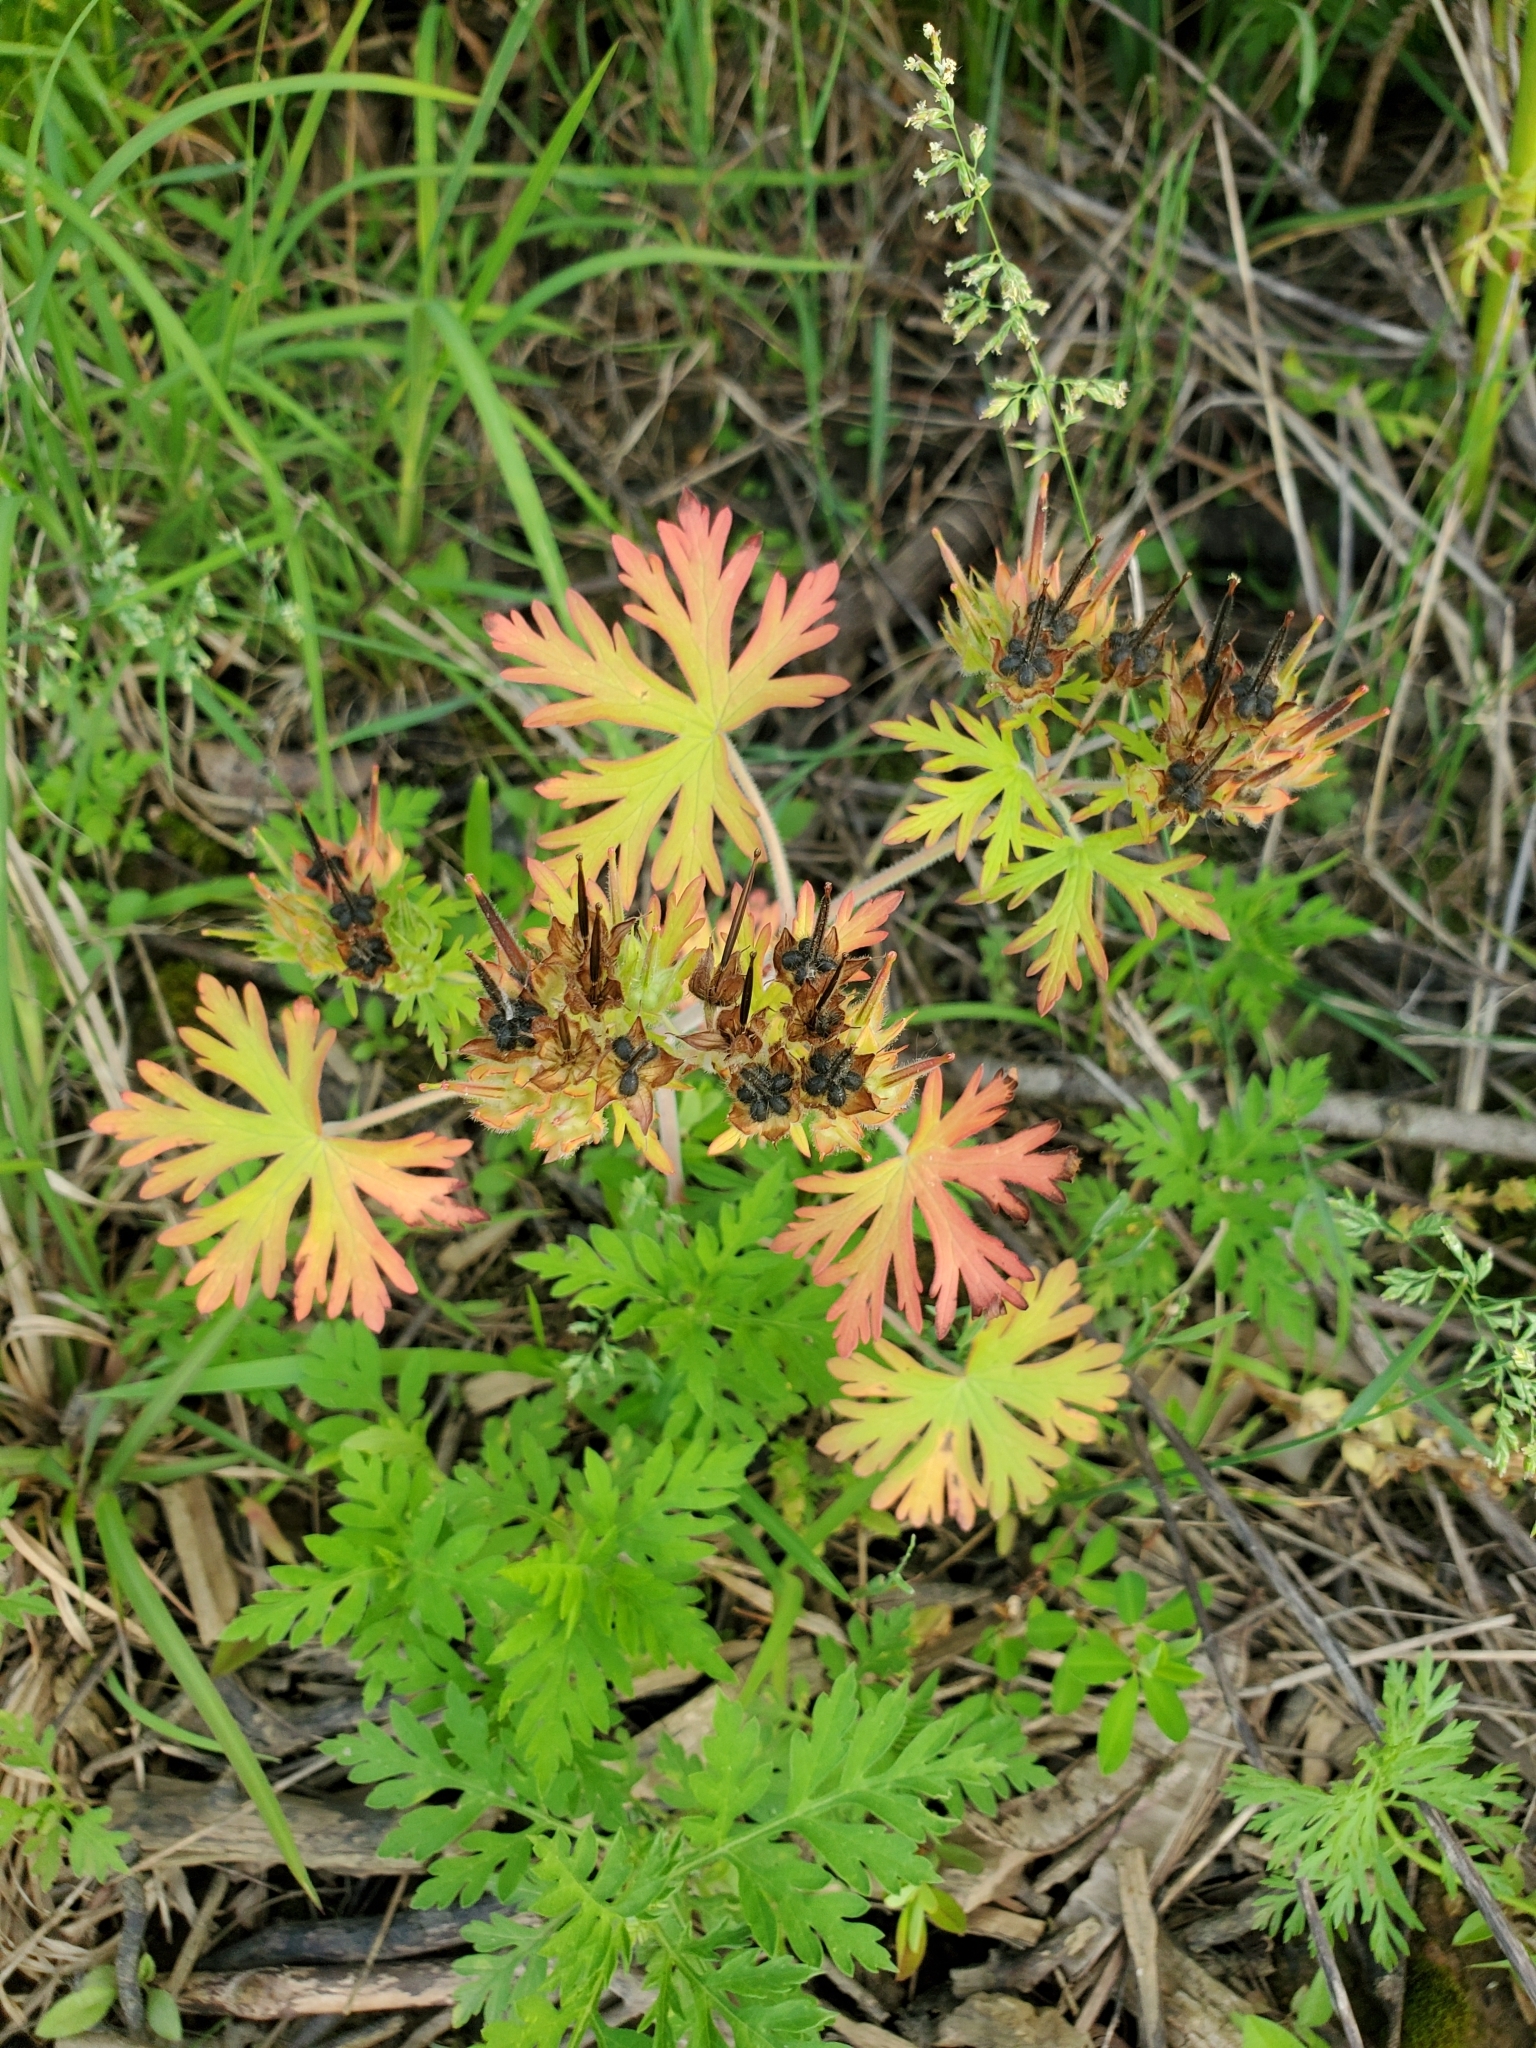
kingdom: Plantae
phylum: Tracheophyta
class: Magnoliopsida
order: Geraniales
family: Geraniaceae
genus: Geranium
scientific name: Geranium carolinianum
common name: Carolina crane's-bill
